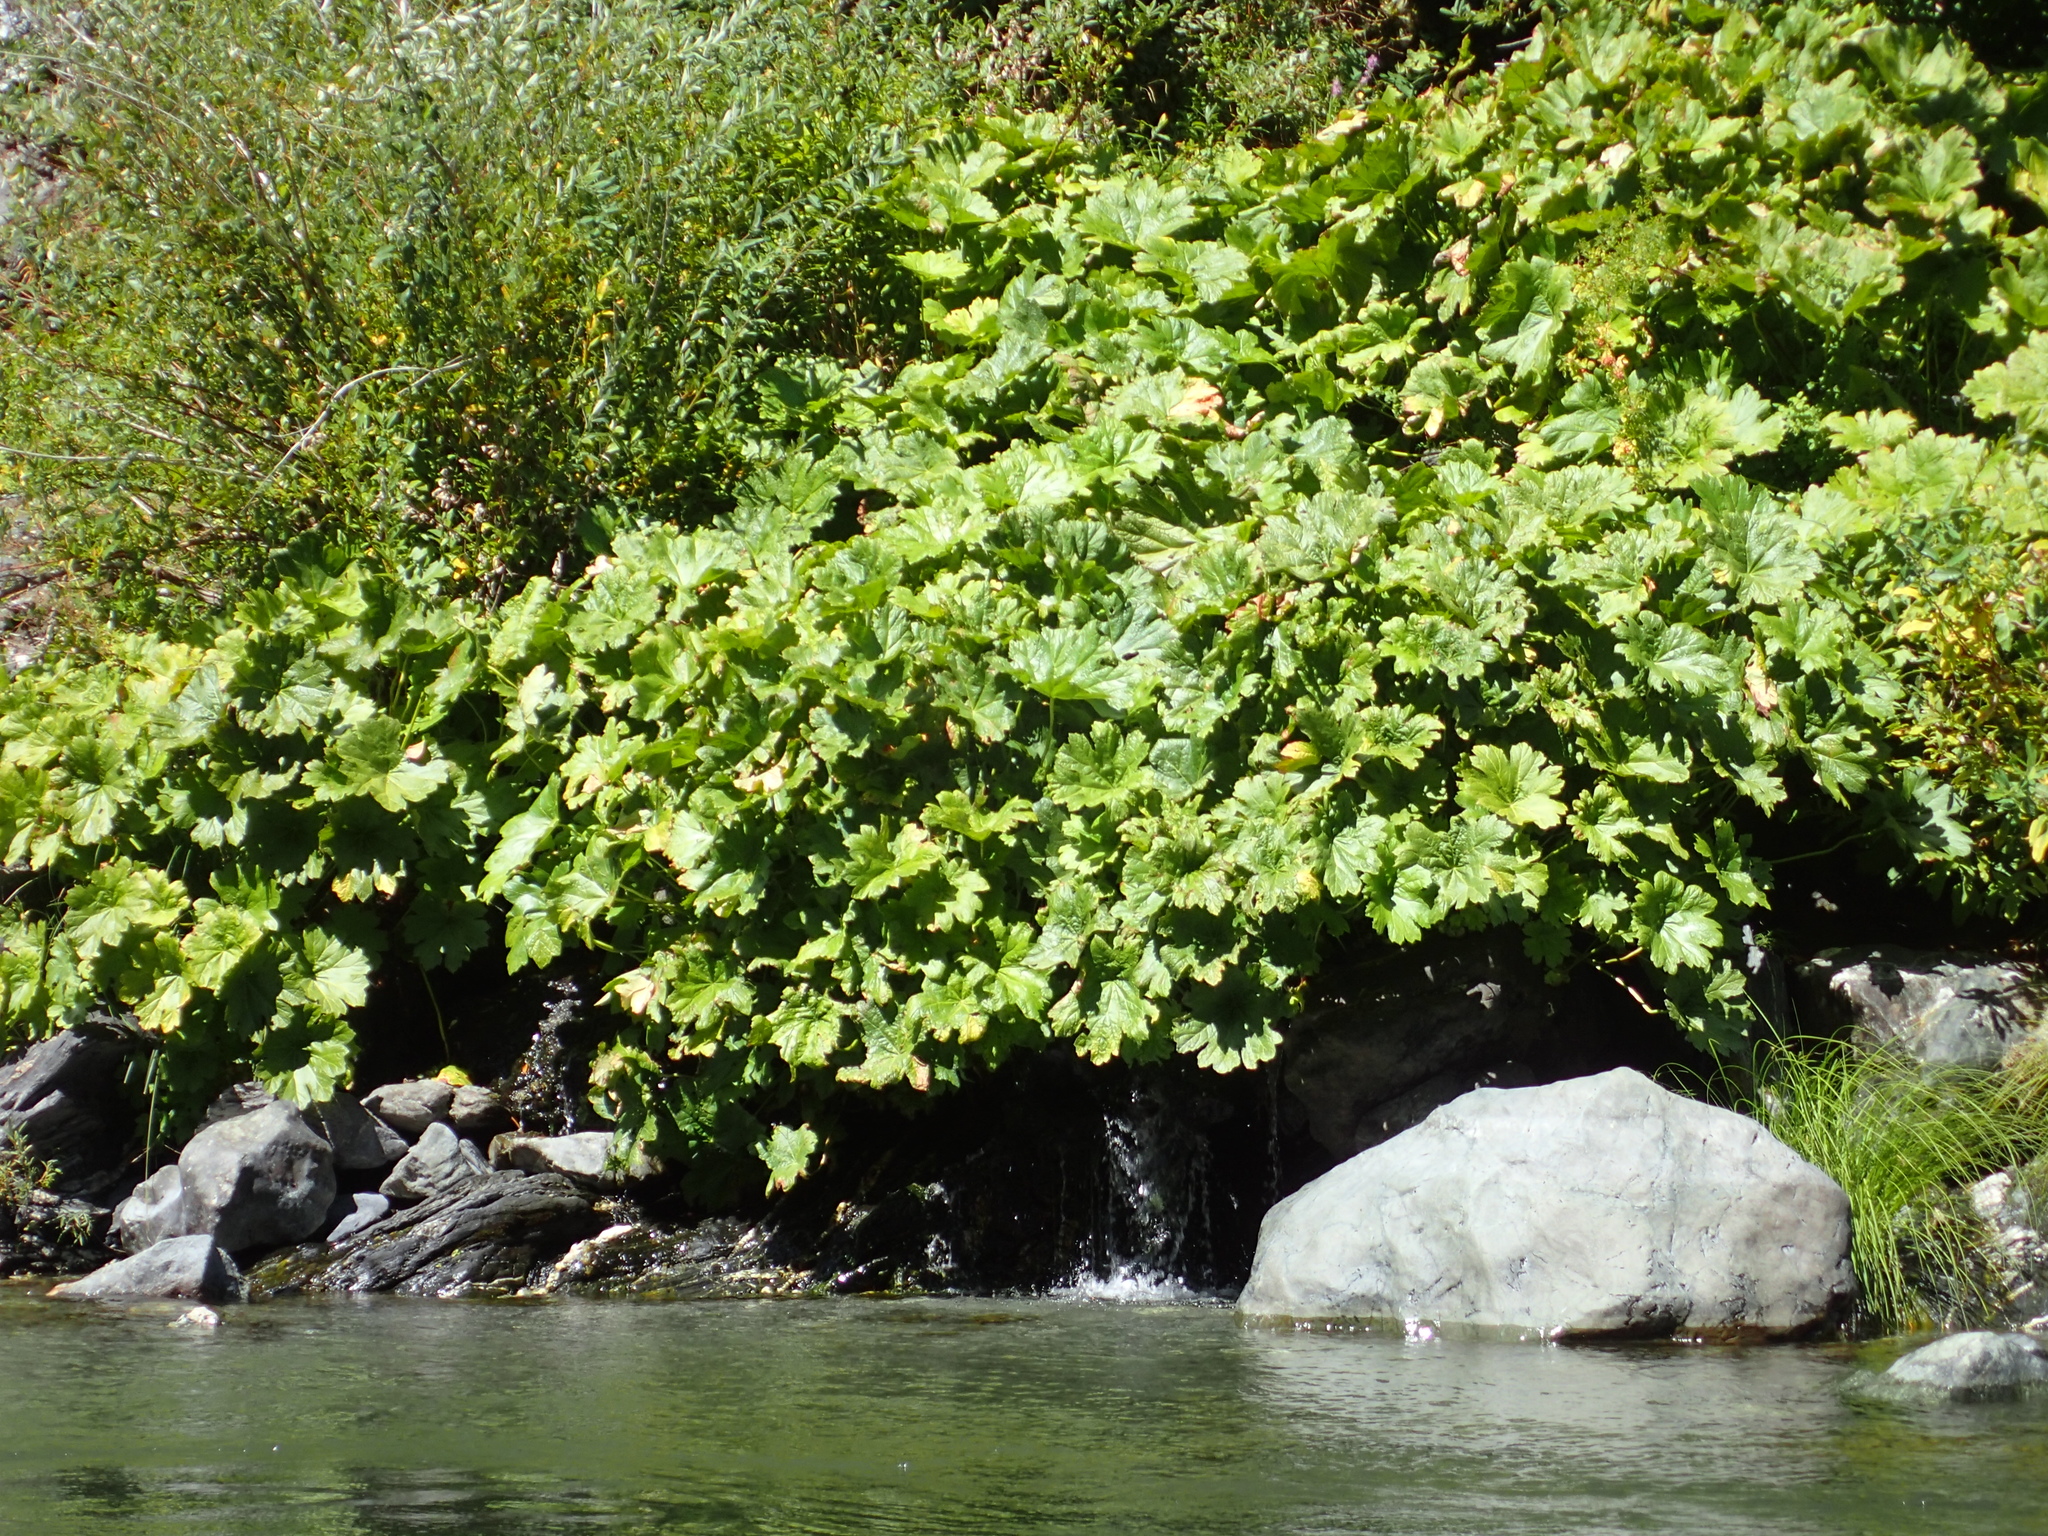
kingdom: Plantae
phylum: Tracheophyta
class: Magnoliopsida
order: Saxifragales
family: Saxifragaceae
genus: Darmera
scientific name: Darmera peltata
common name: Indian-rhubarb
